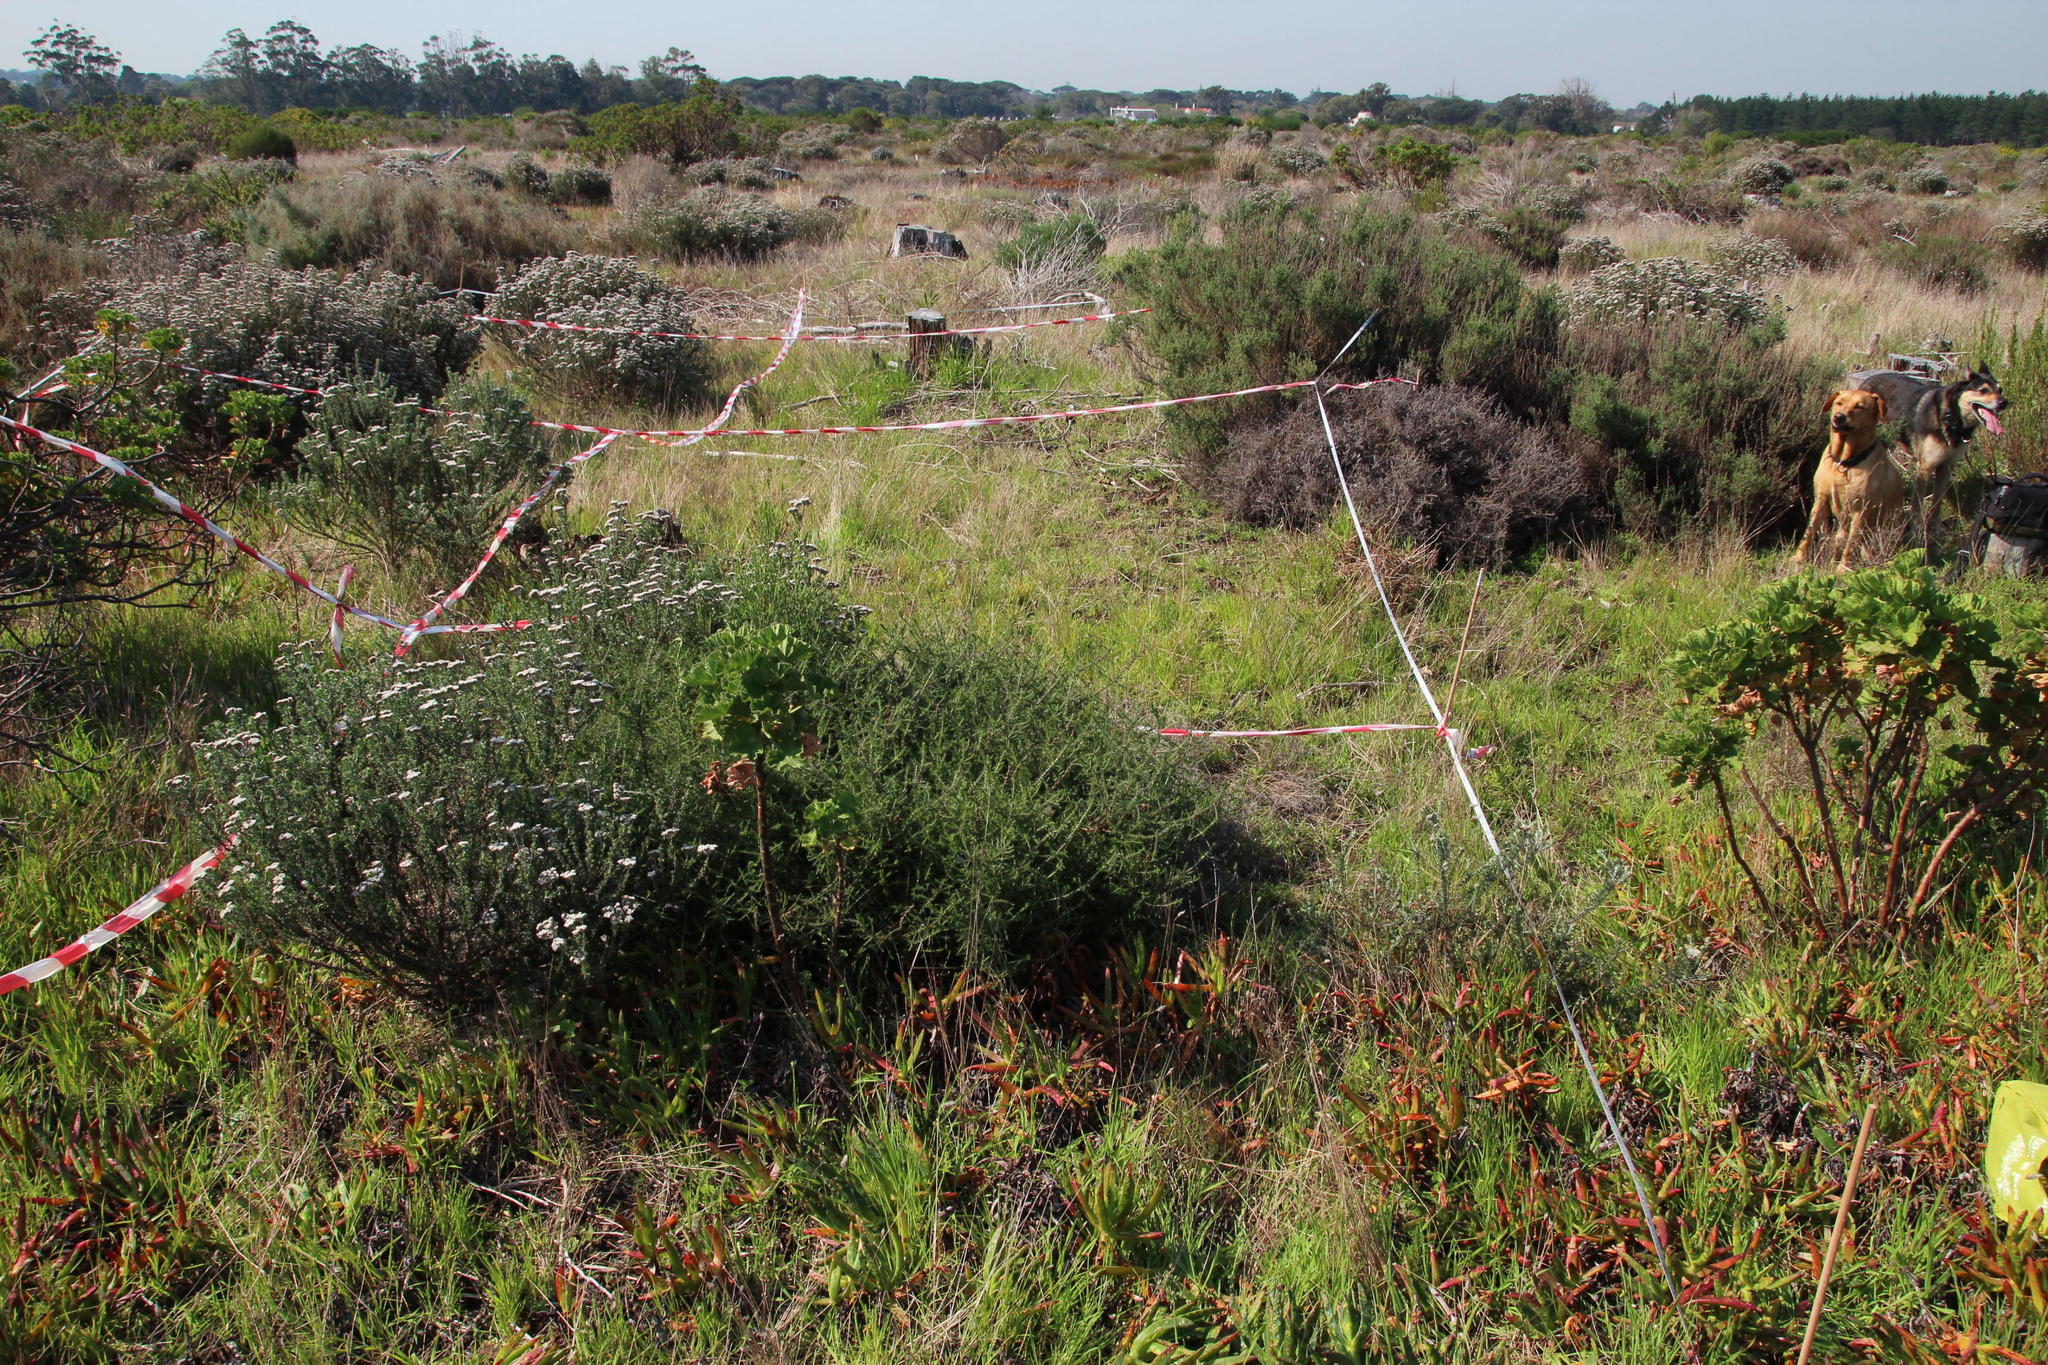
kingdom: Plantae
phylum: Tracheophyta
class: Magnoliopsida
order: Asterales
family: Asteraceae
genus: Seriphium
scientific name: Seriphium cinereum
